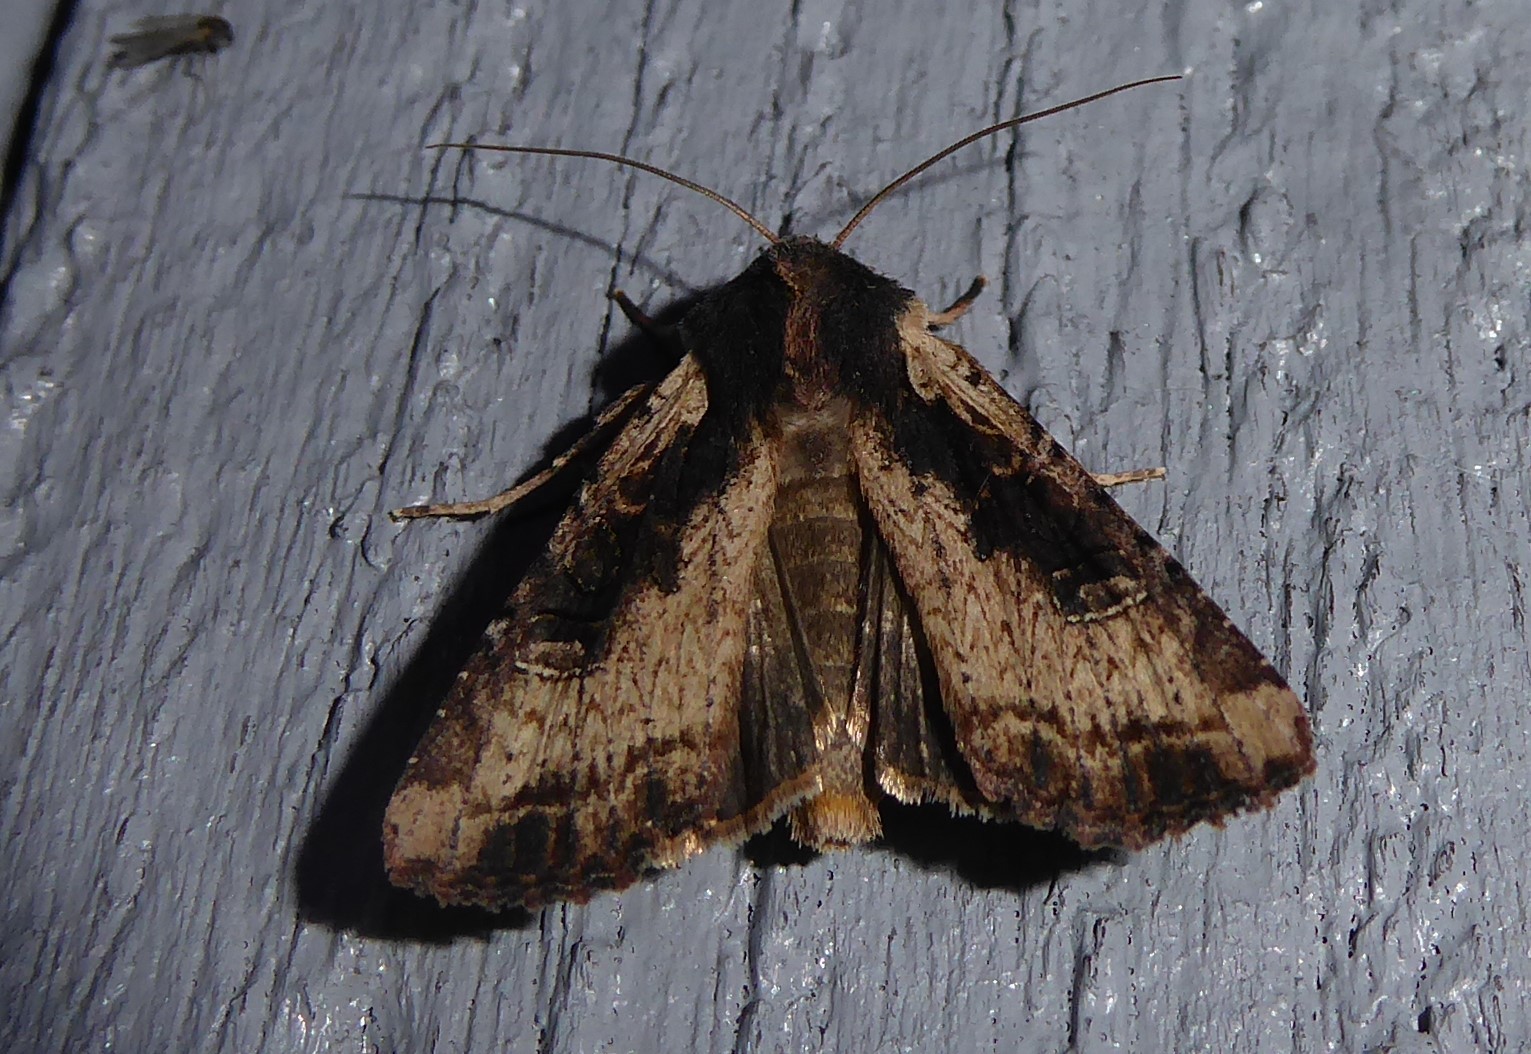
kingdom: Animalia
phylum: Arthropoda
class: Insecta
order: Lepidoptera
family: Noctuidae
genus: Ichneutica
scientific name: Ichneutica omoplaca
